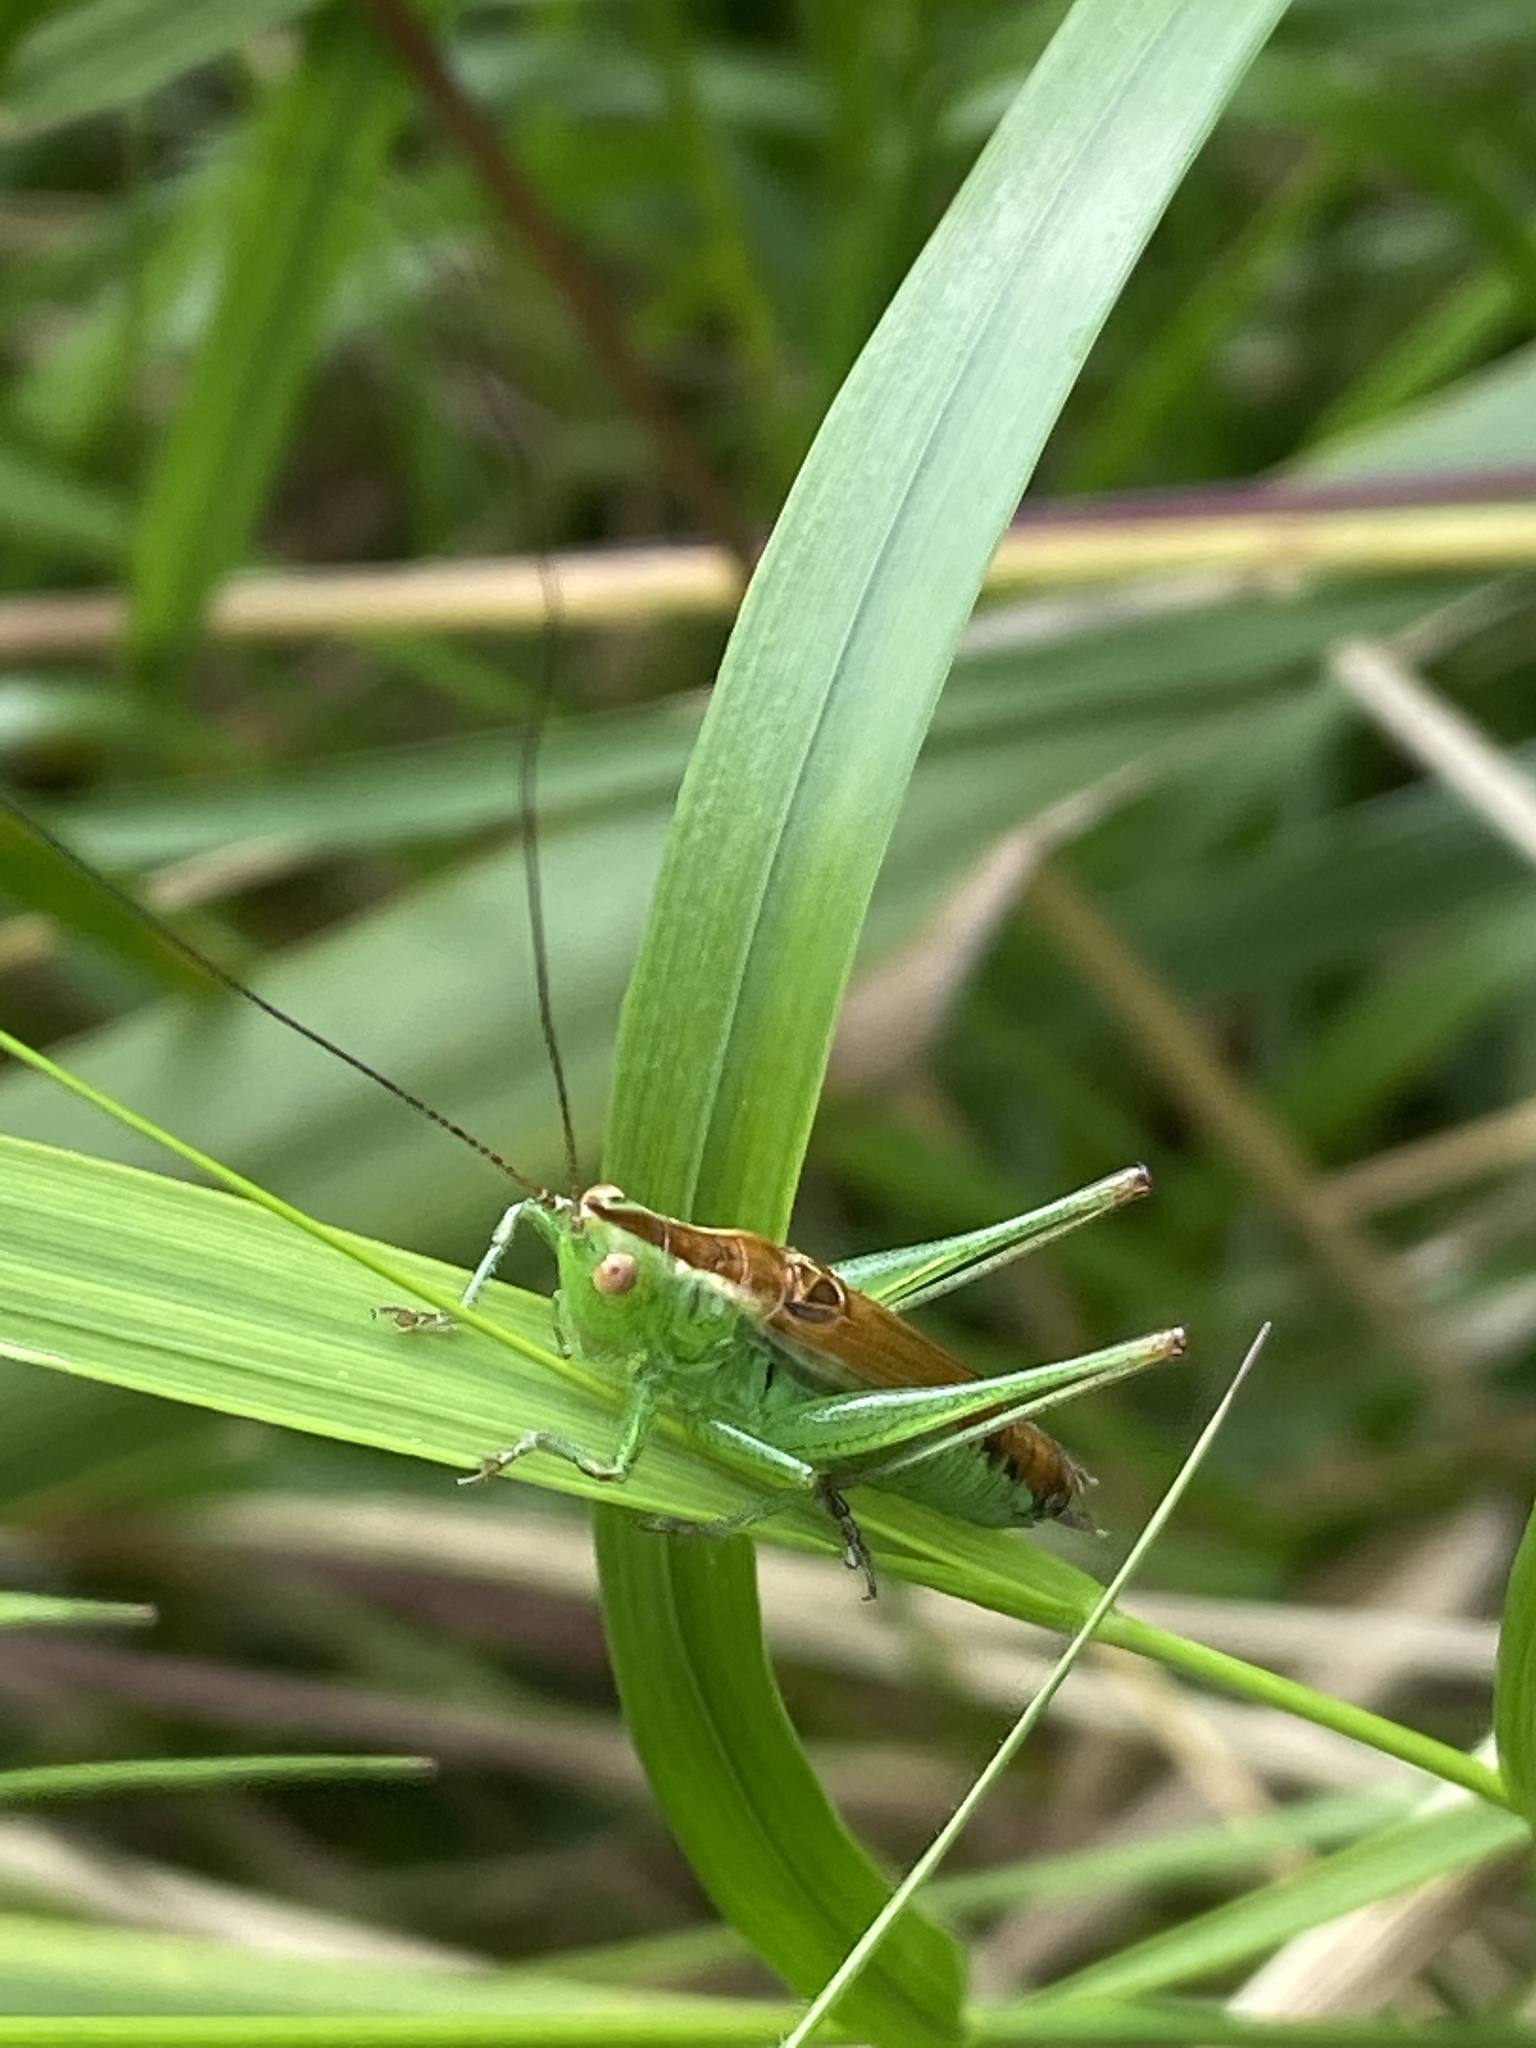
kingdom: Animalia
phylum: Arthropoda
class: Insecta
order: Orthoptera
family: Tettigoniidae
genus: Conocephalus
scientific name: Conocephalus dorsalis
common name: Short-winged conehead
